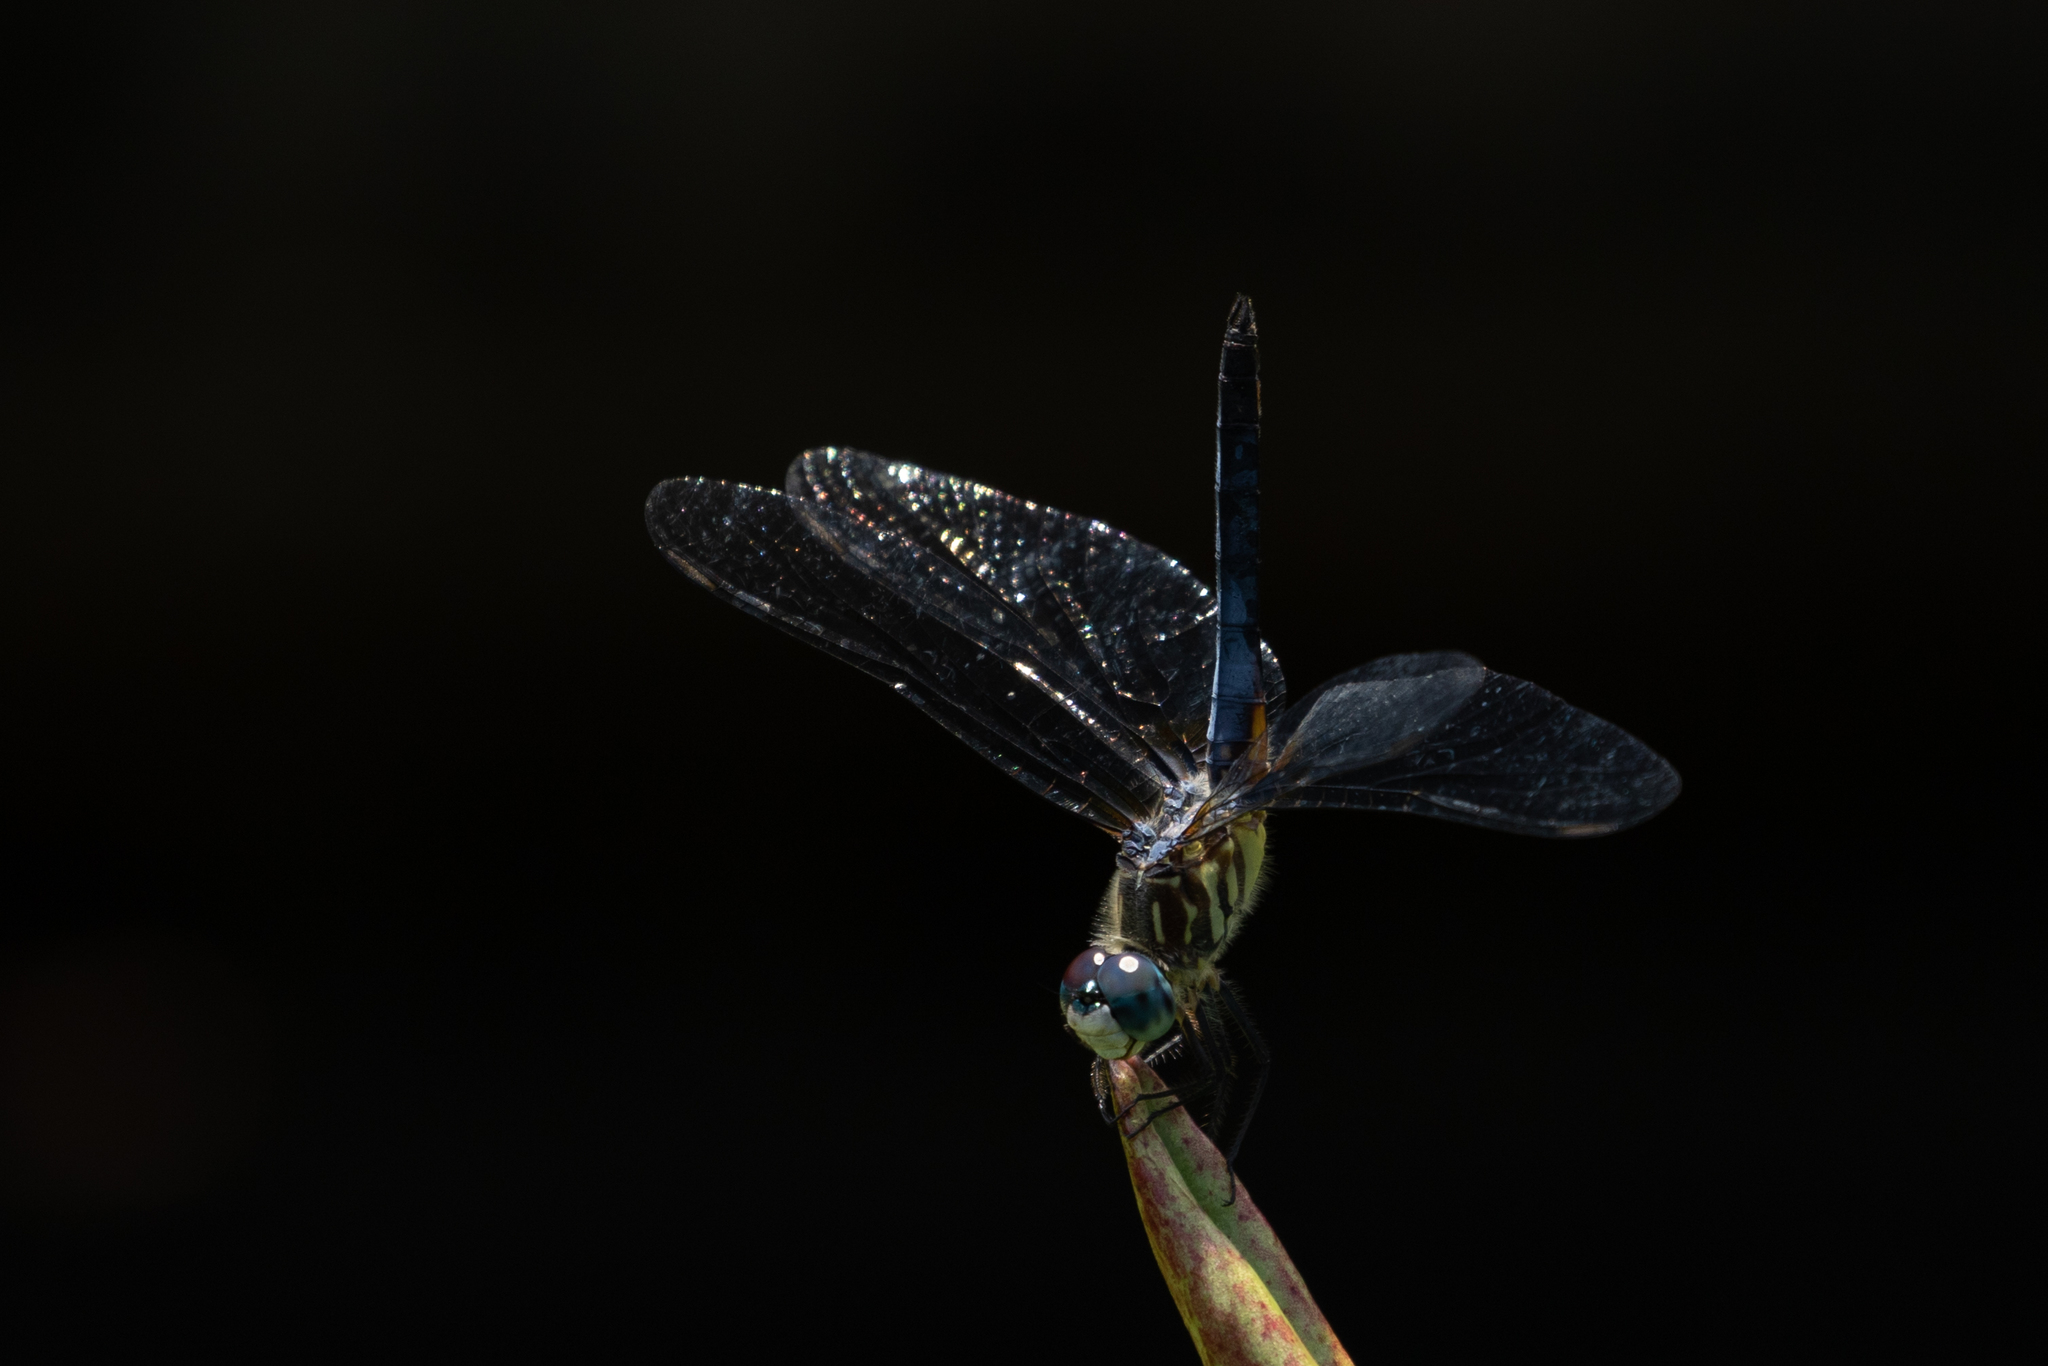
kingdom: Animalia
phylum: Arthropoda
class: Insecta
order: Odonata
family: Libellulidae
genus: Pachydiplax
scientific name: Pachydiplax longipennis
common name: Blue dasher
